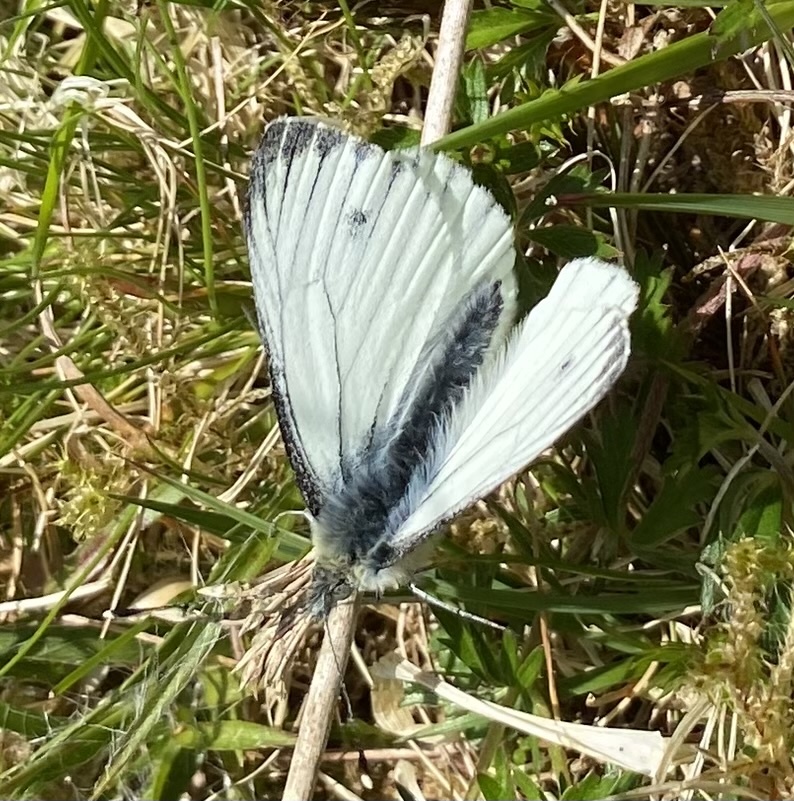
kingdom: Animalia
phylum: Arthropoda
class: Insecta
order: Lepidoptera
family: Pieridae
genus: Pieris
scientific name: Pieris napi
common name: Green-veined white
